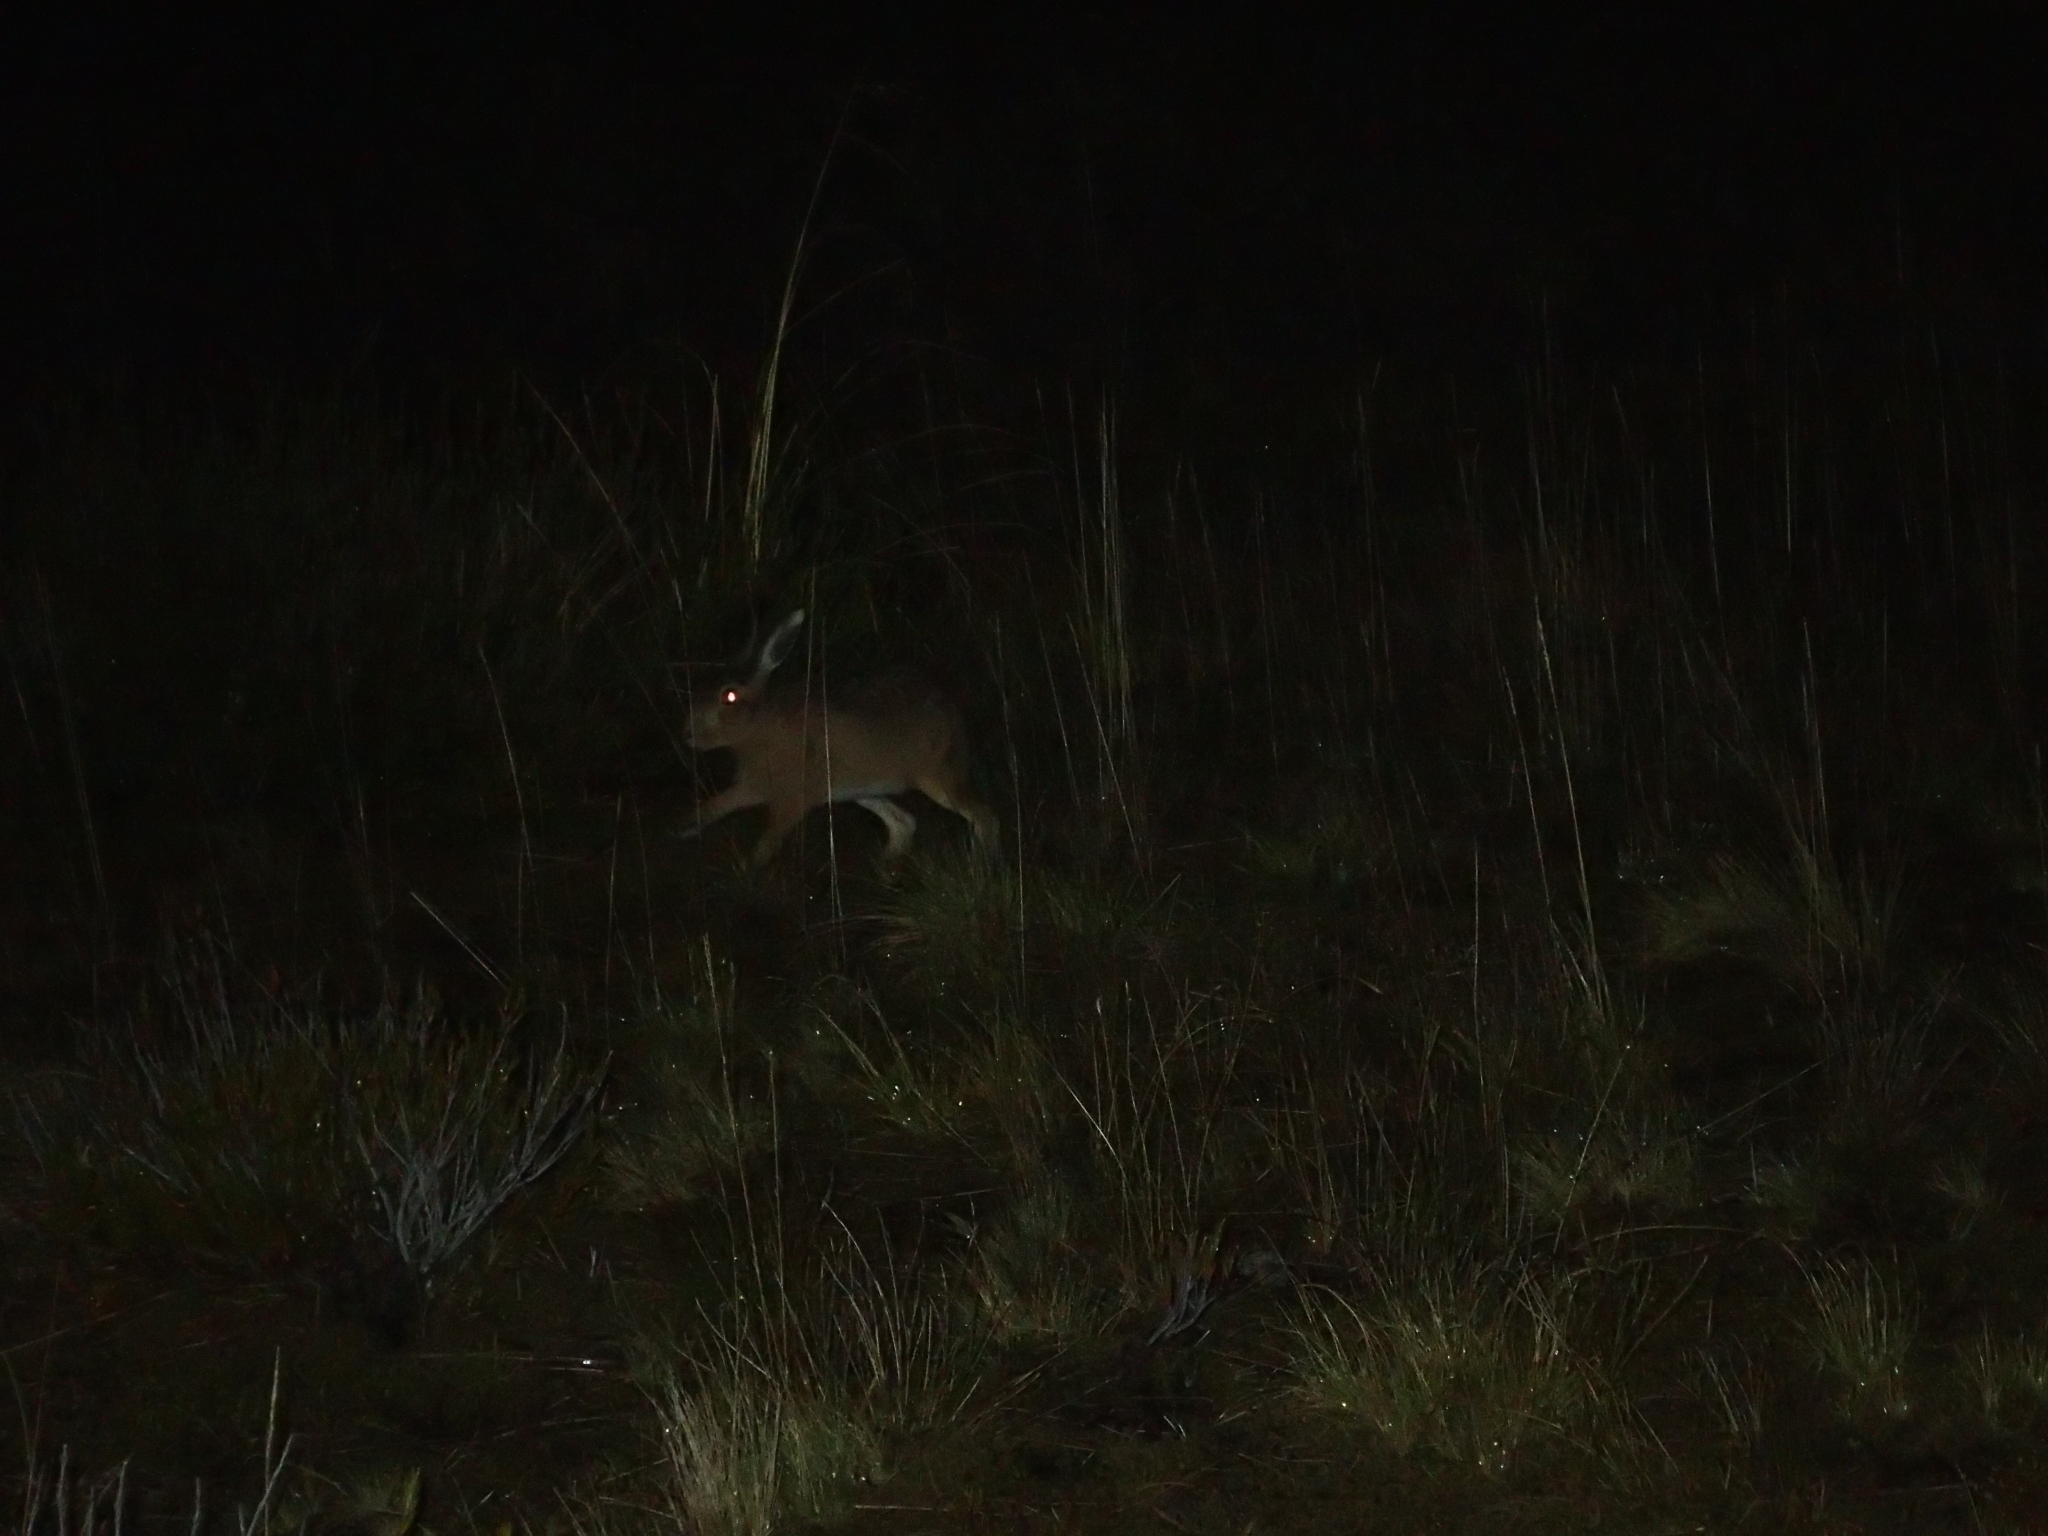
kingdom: Animalia
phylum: Chordata
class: Mammalia
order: Lagomorpha
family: Leporidae
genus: Lepus
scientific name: Lepus europaeus
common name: European hare
